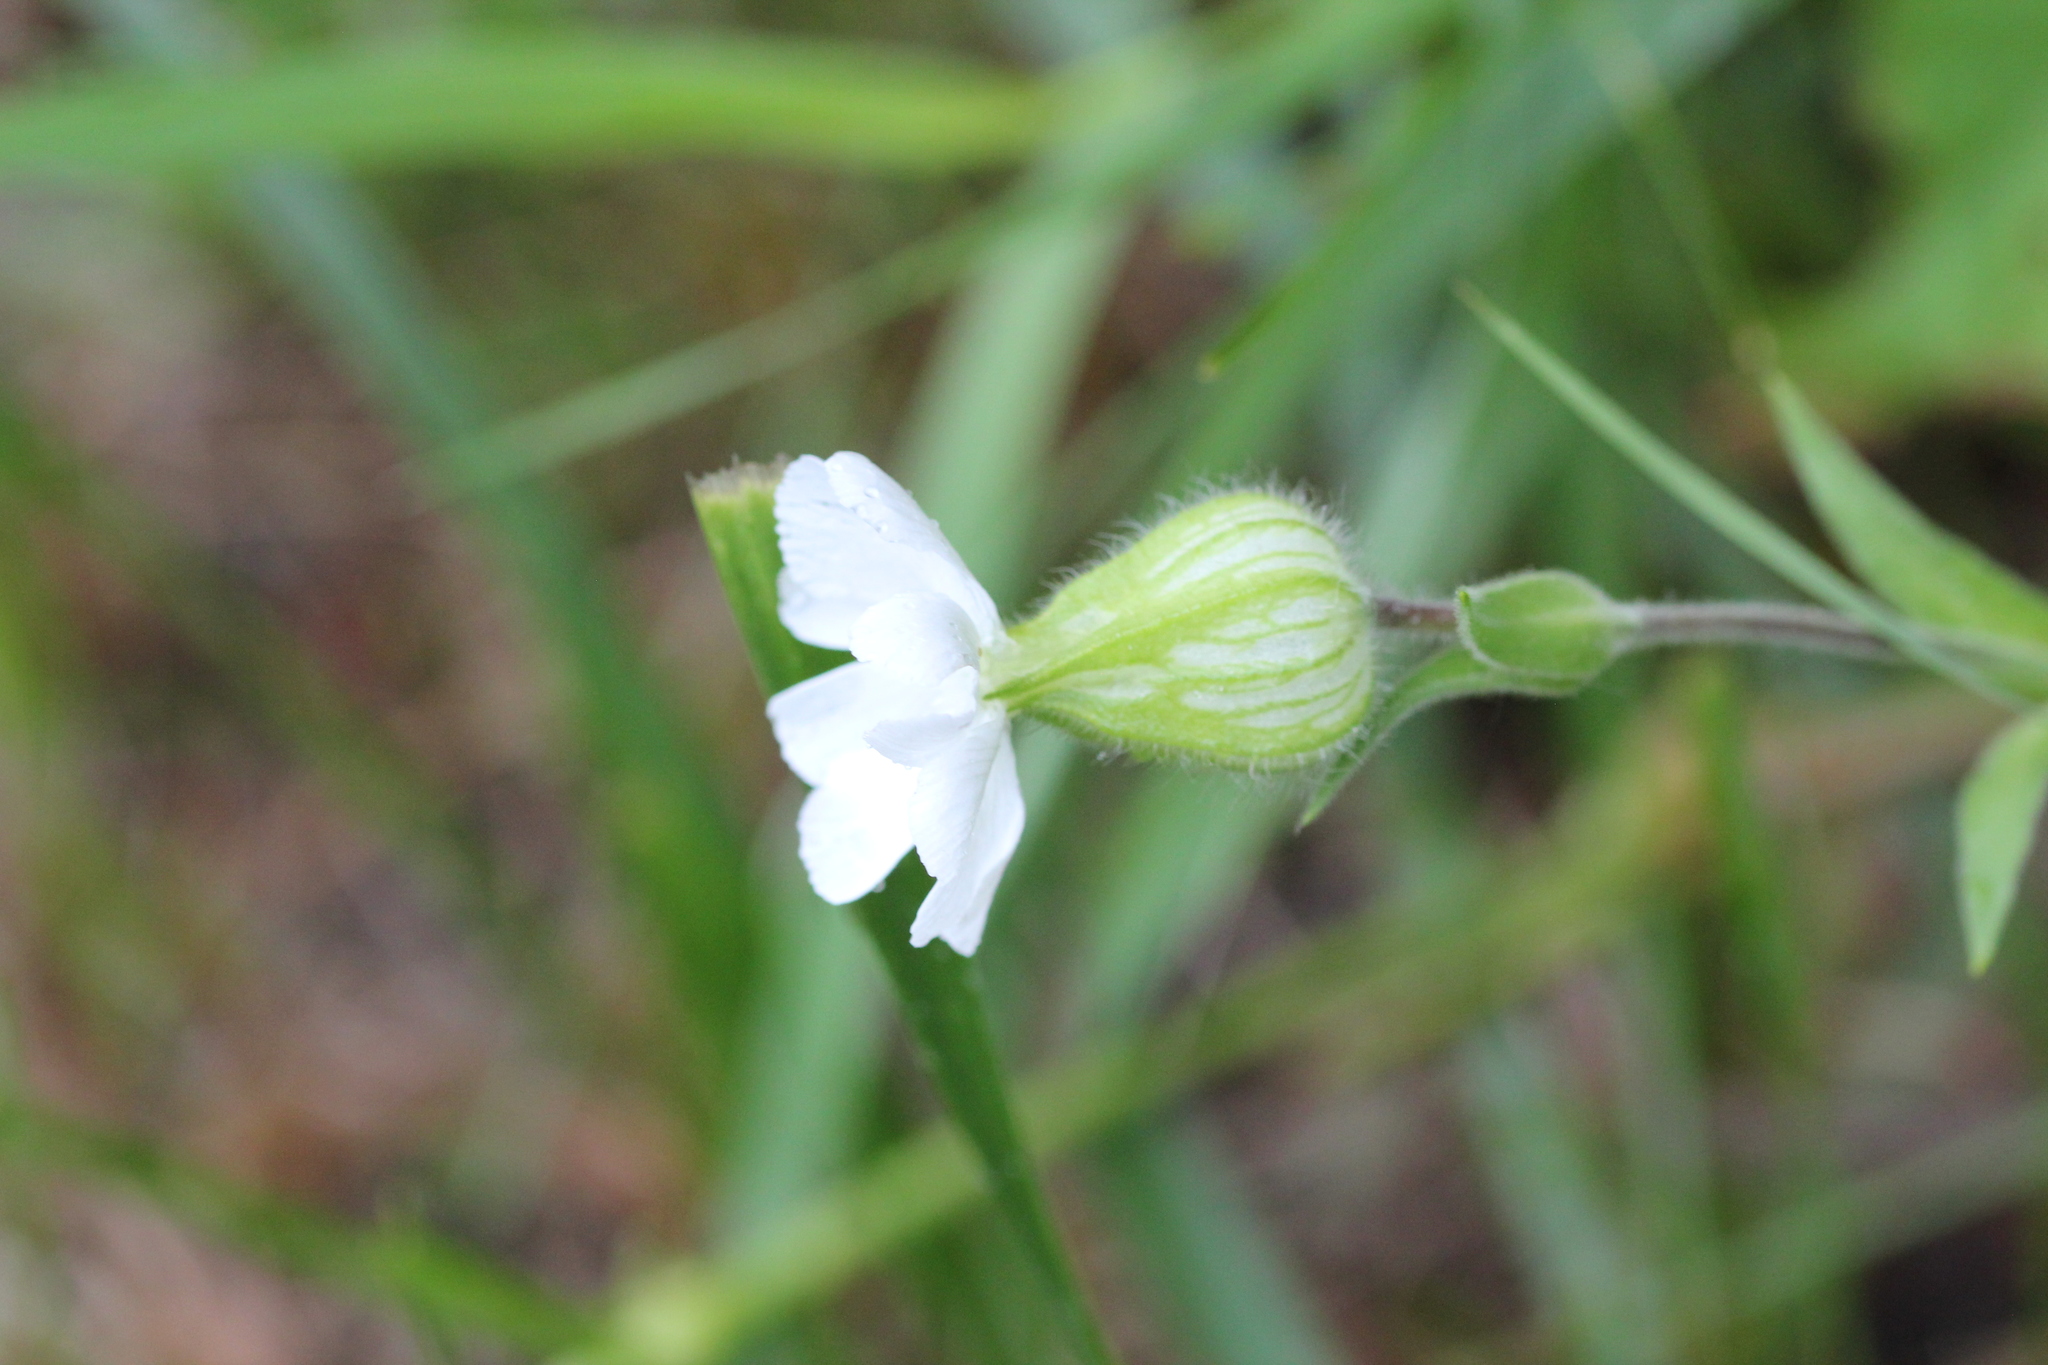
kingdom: Plantae
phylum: Tracheophyta
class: Magnoliopsida
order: Caryophyllales
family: Caryophyllaceae
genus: Silene
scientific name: Silene latifolia
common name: White campion
